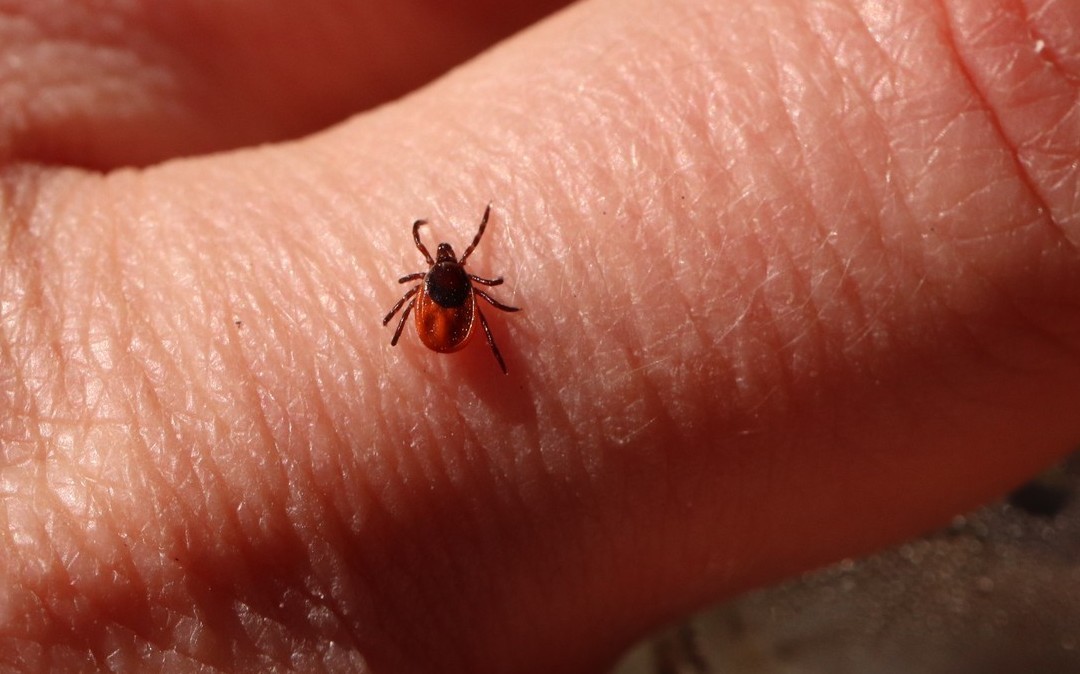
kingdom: Animalia
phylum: Arthropoda
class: Arachnida
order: Ixodida
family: Ixodidae
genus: Ixodes
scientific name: Ixodes persulcatus
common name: Taiga tick
